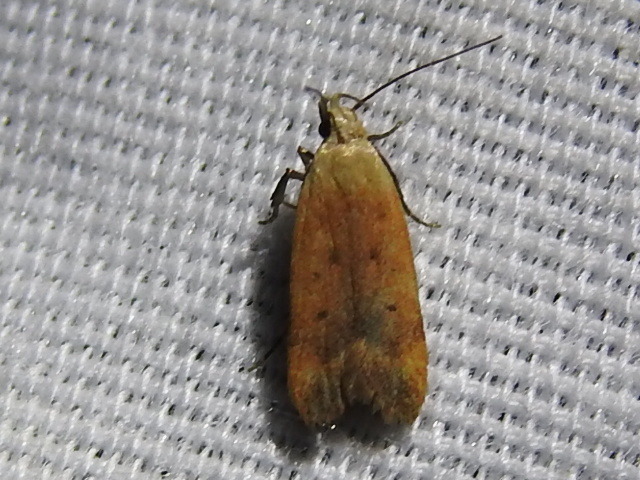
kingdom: Animalia
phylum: Arthropoda
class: Insecta
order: Lepidoptera
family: Gelechiidae
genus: Anacampsis
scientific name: Anacampsis fullonella
